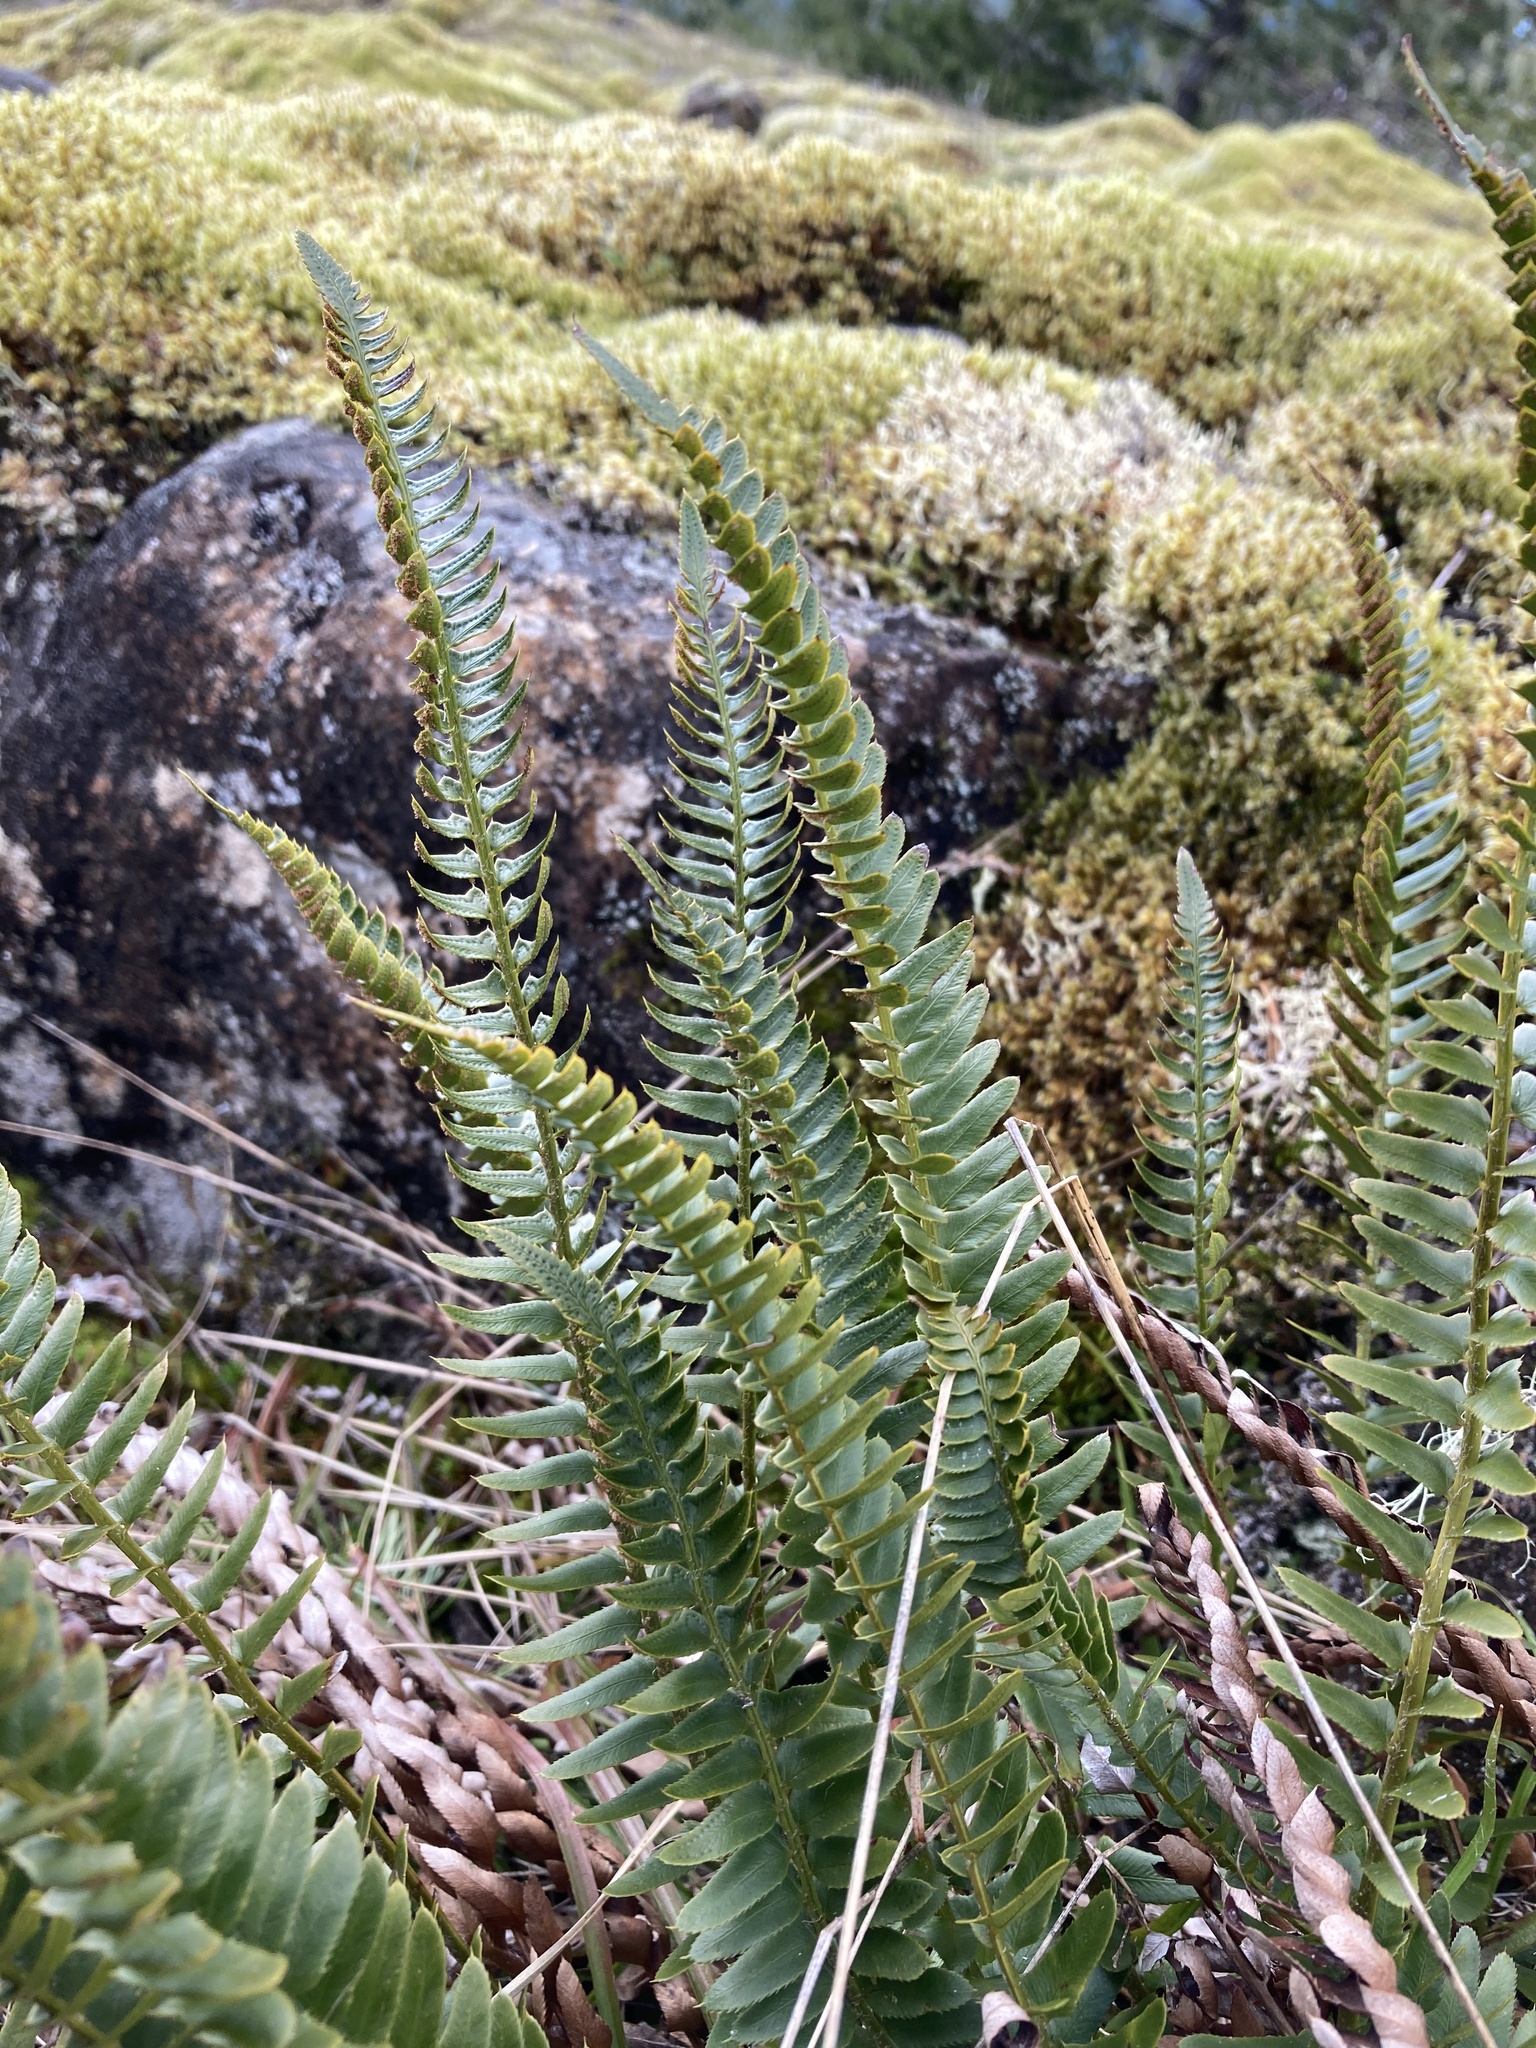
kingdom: Plantae
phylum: Tracheophyta
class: Polypodiopsida
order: Polypodiales
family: Dryopteridaceae
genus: Polystichum
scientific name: Polystichum imbricans
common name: Dwarf western sword fern
